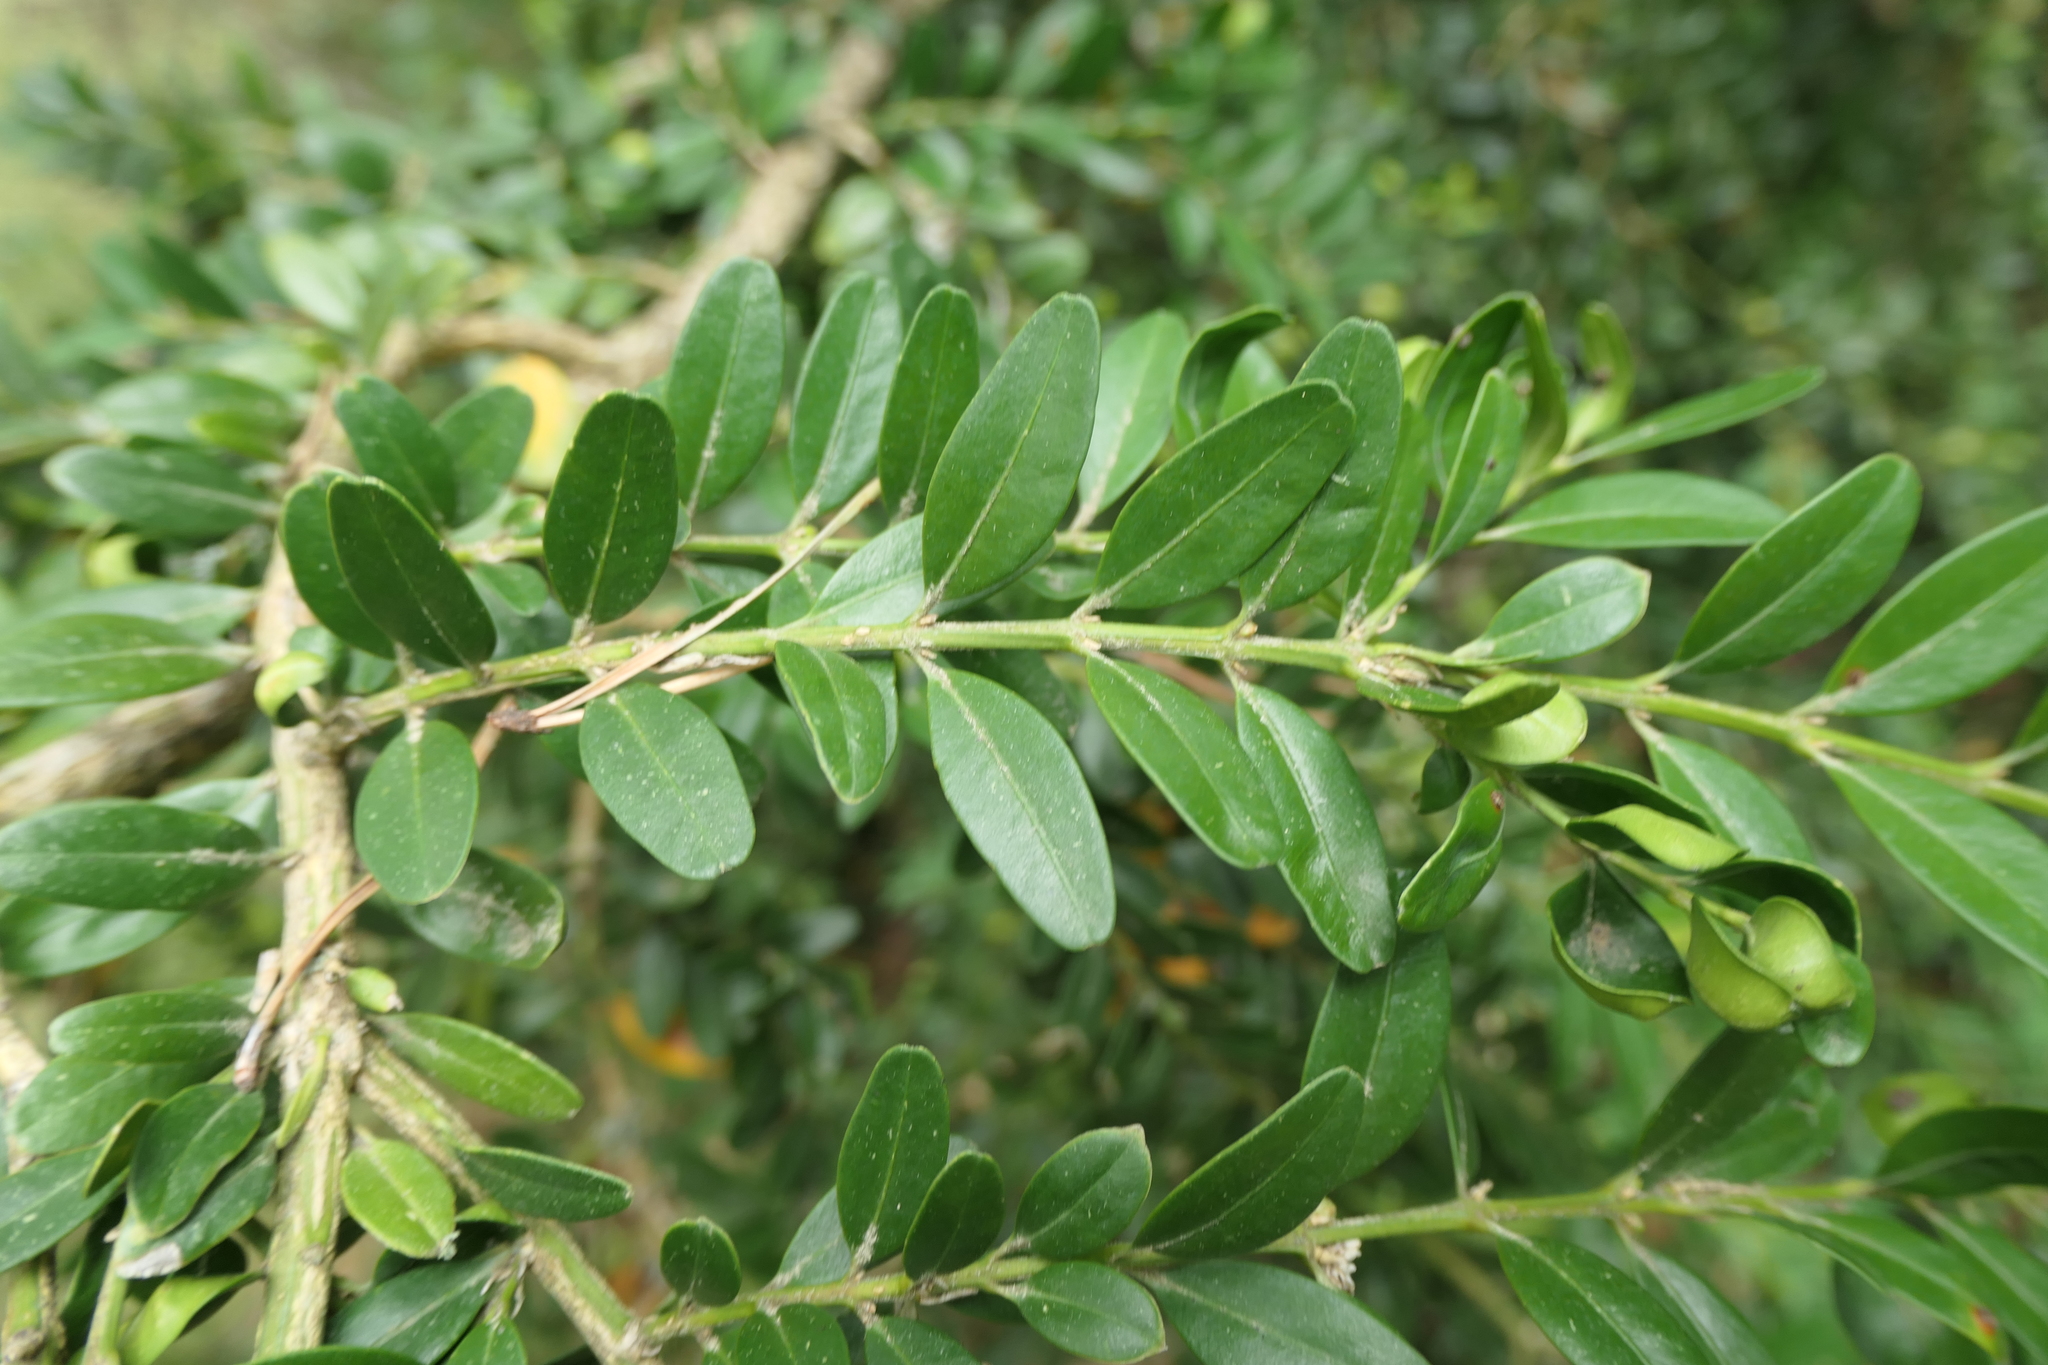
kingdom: Plantae
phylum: Tracheophyta
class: Magnoliopsida
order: Buxales
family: Buxaceae
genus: Buxus
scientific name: Buxus sempervirens
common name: Box
